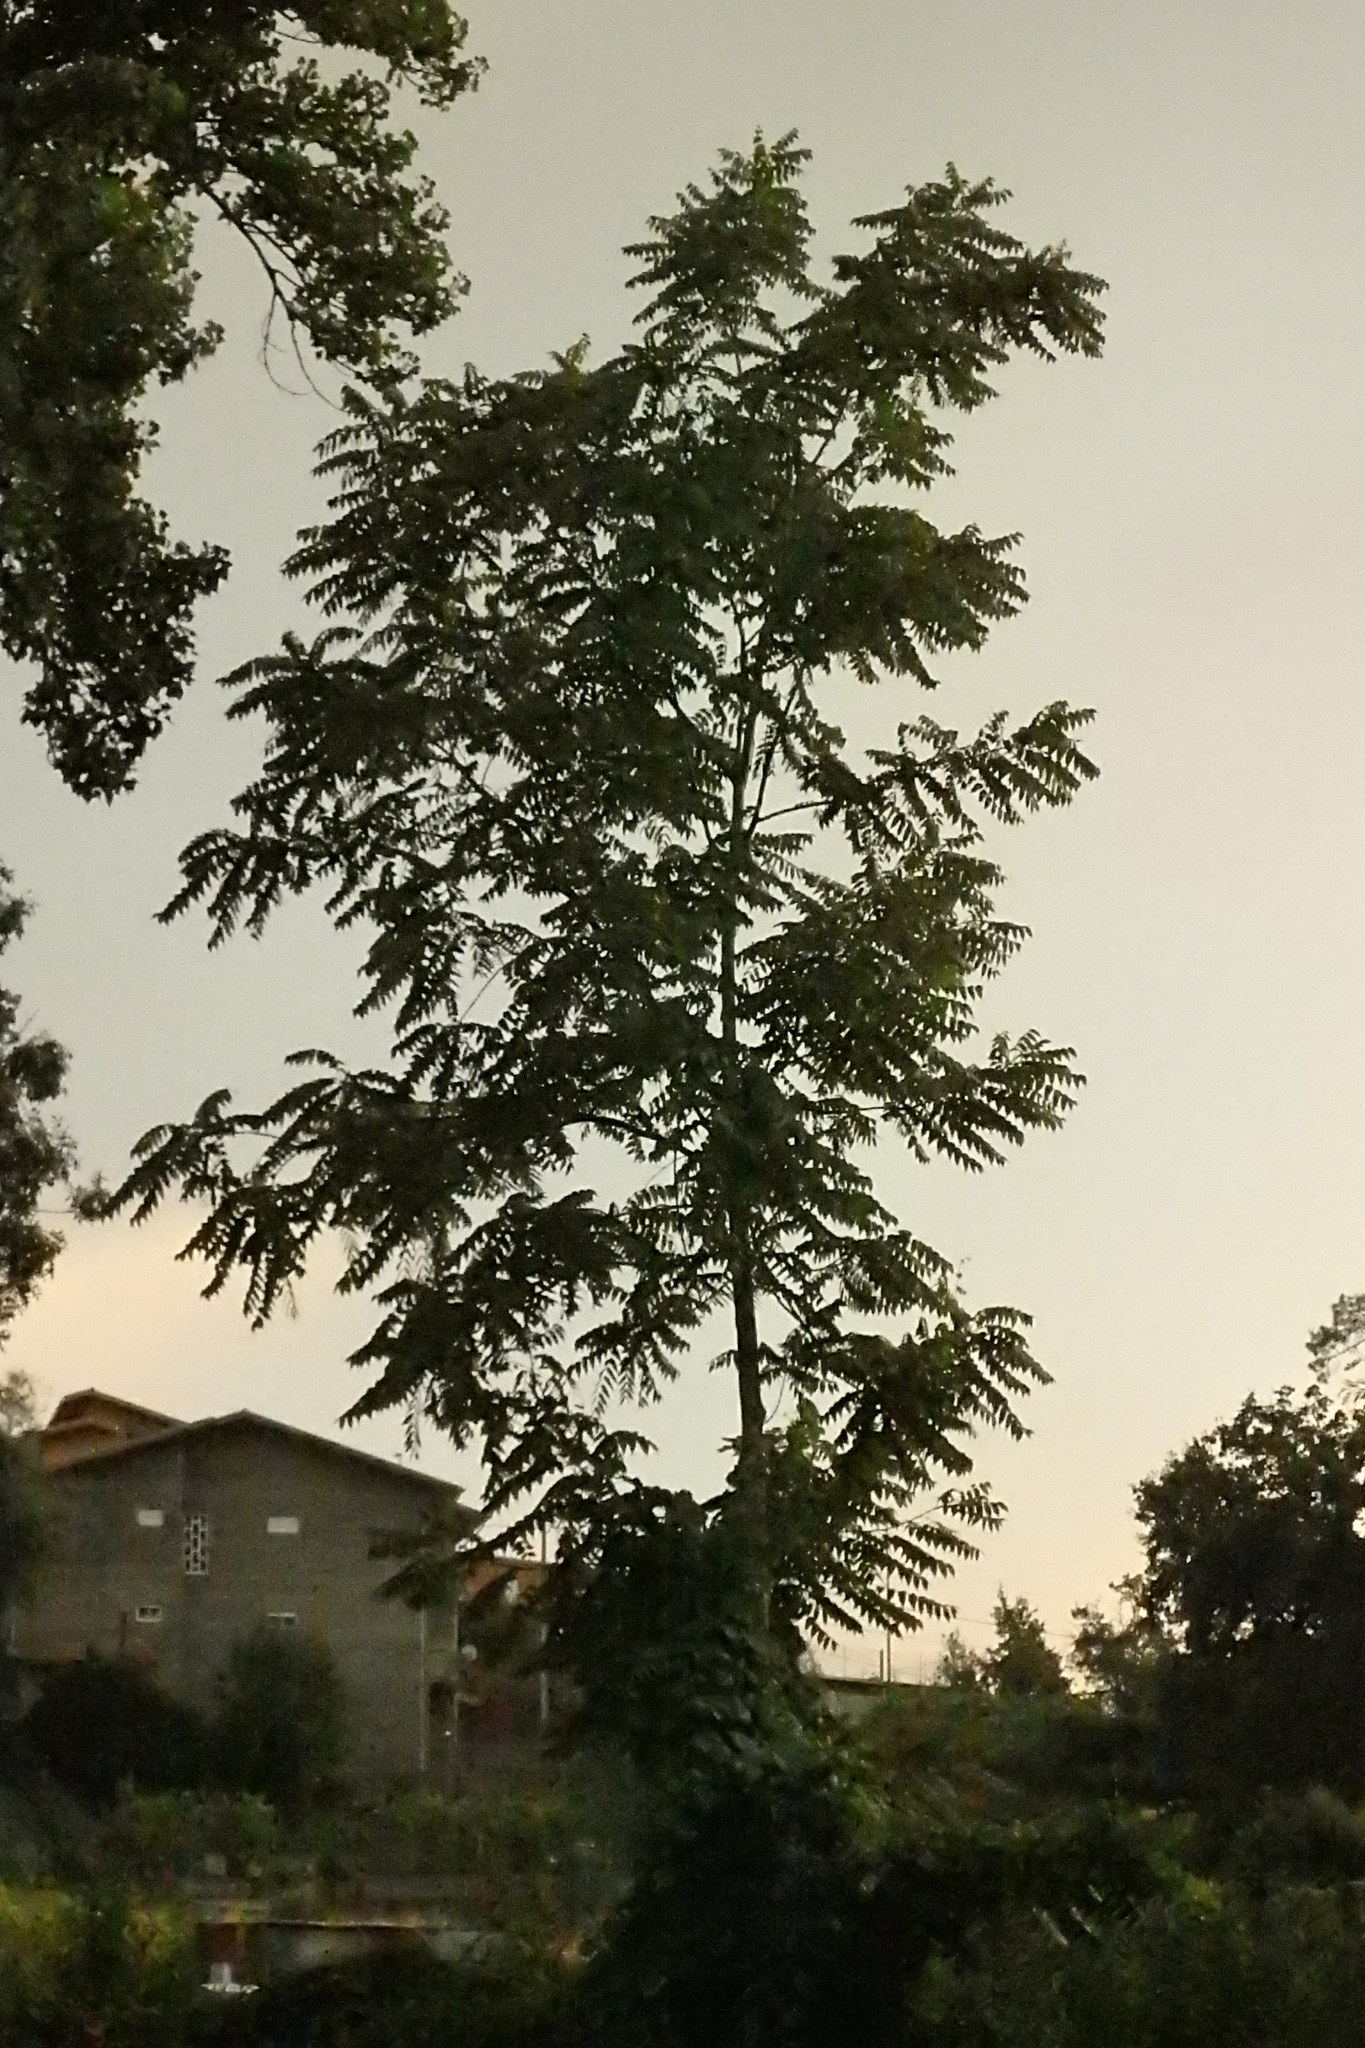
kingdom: Plantae
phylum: Tracheophyta
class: Magnoliopsida
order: Sapindales
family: Simaroubaceae
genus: Ailanthus
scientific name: Ailanthus altissima
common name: Tree-of-heaven
